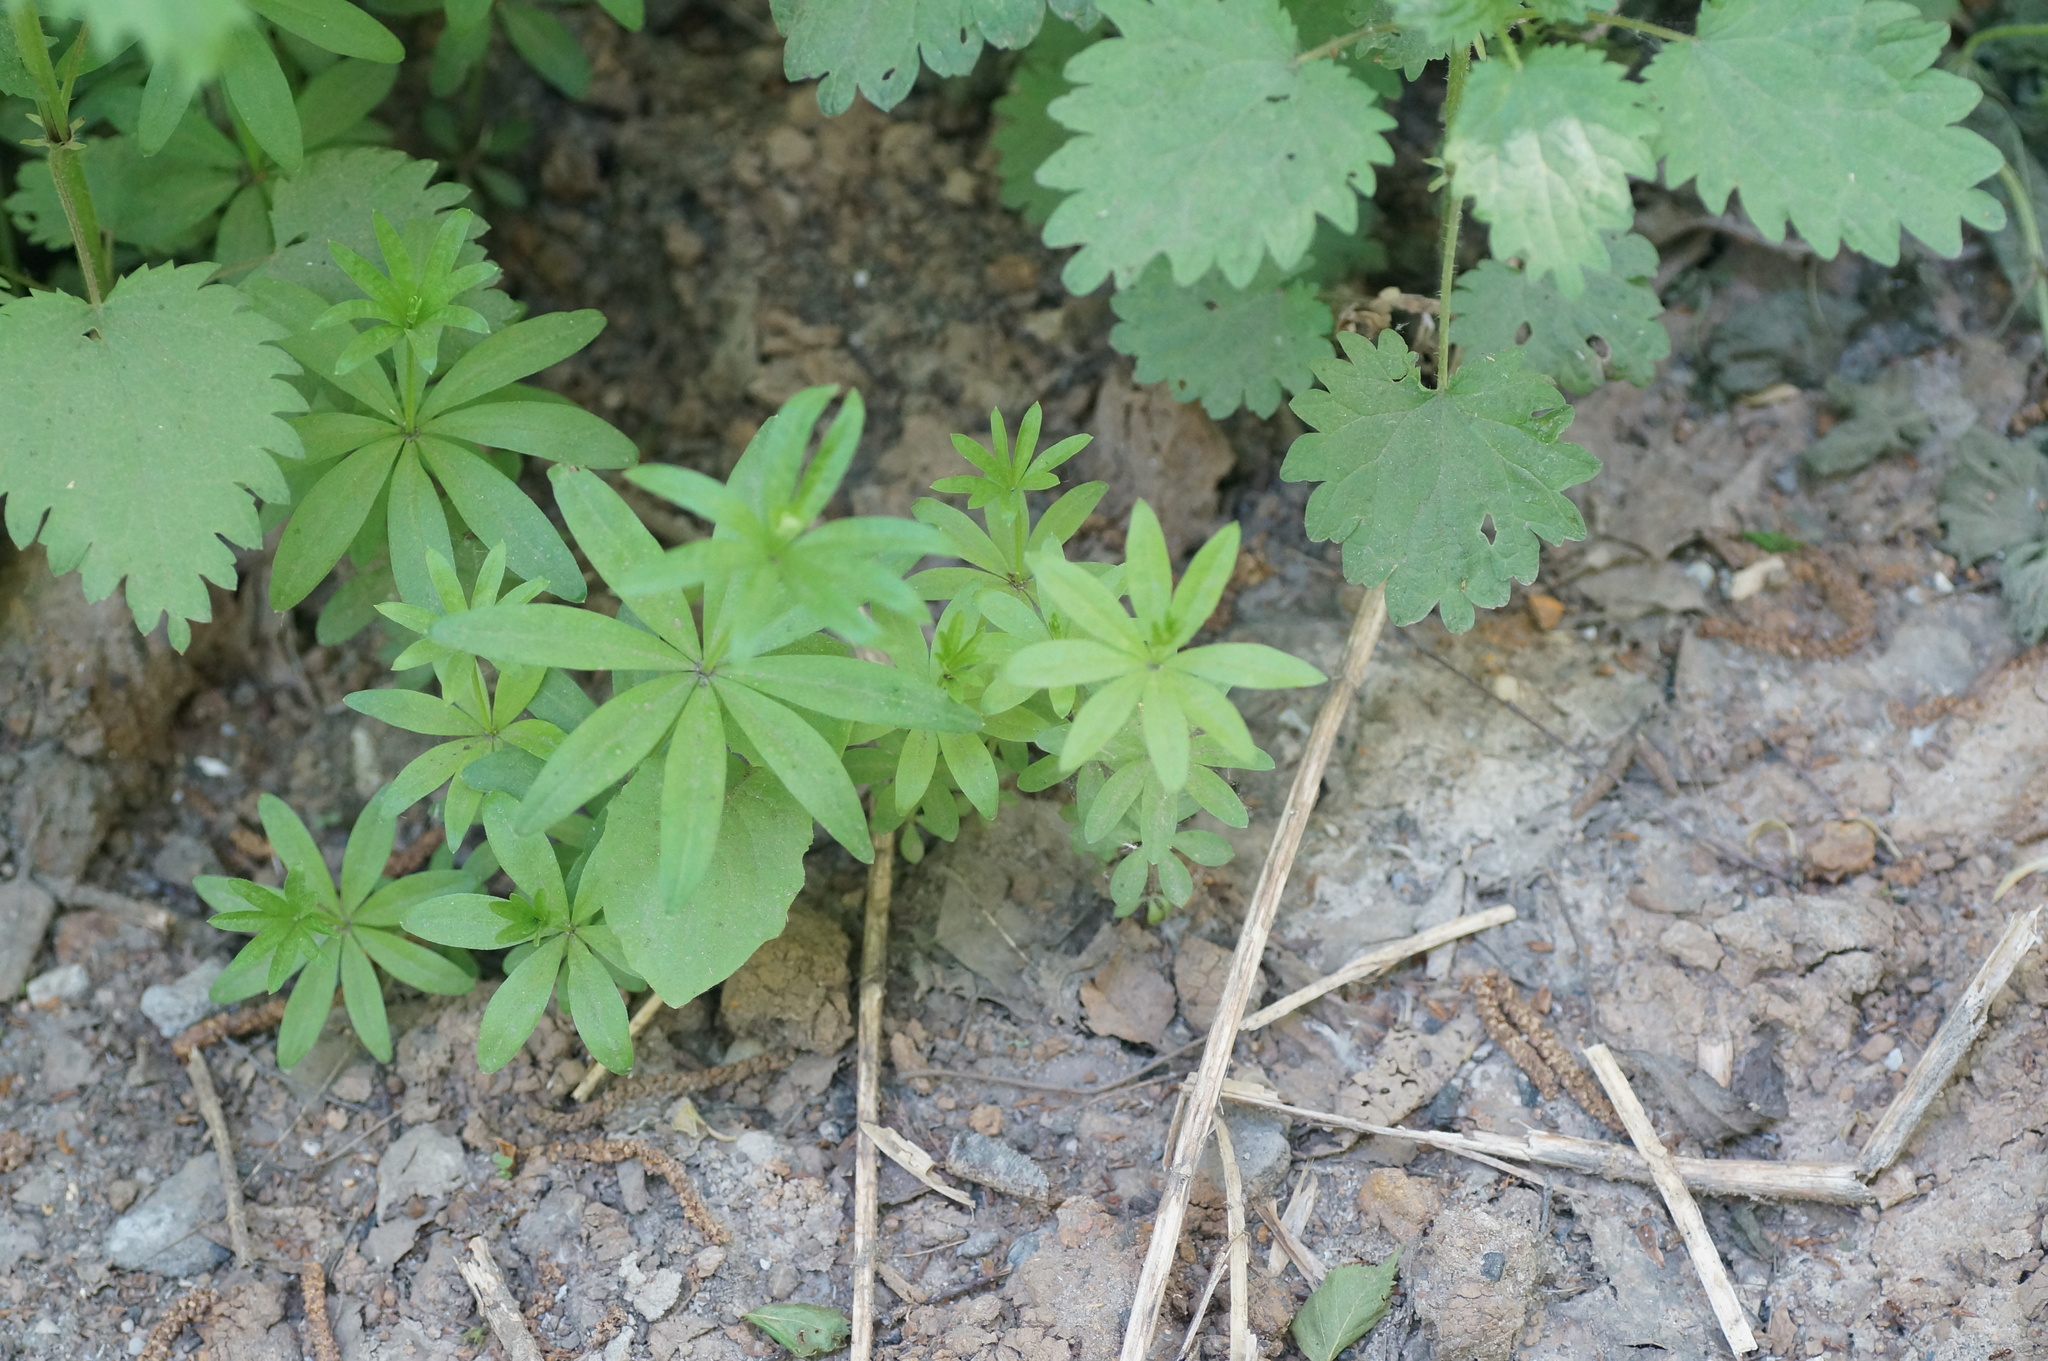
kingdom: Plantae
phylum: Tracheophyta
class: Magnoliopsida
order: Gentianales
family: Rubiaceae
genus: Galium
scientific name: Galium odoratum
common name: Sweet woodruff
